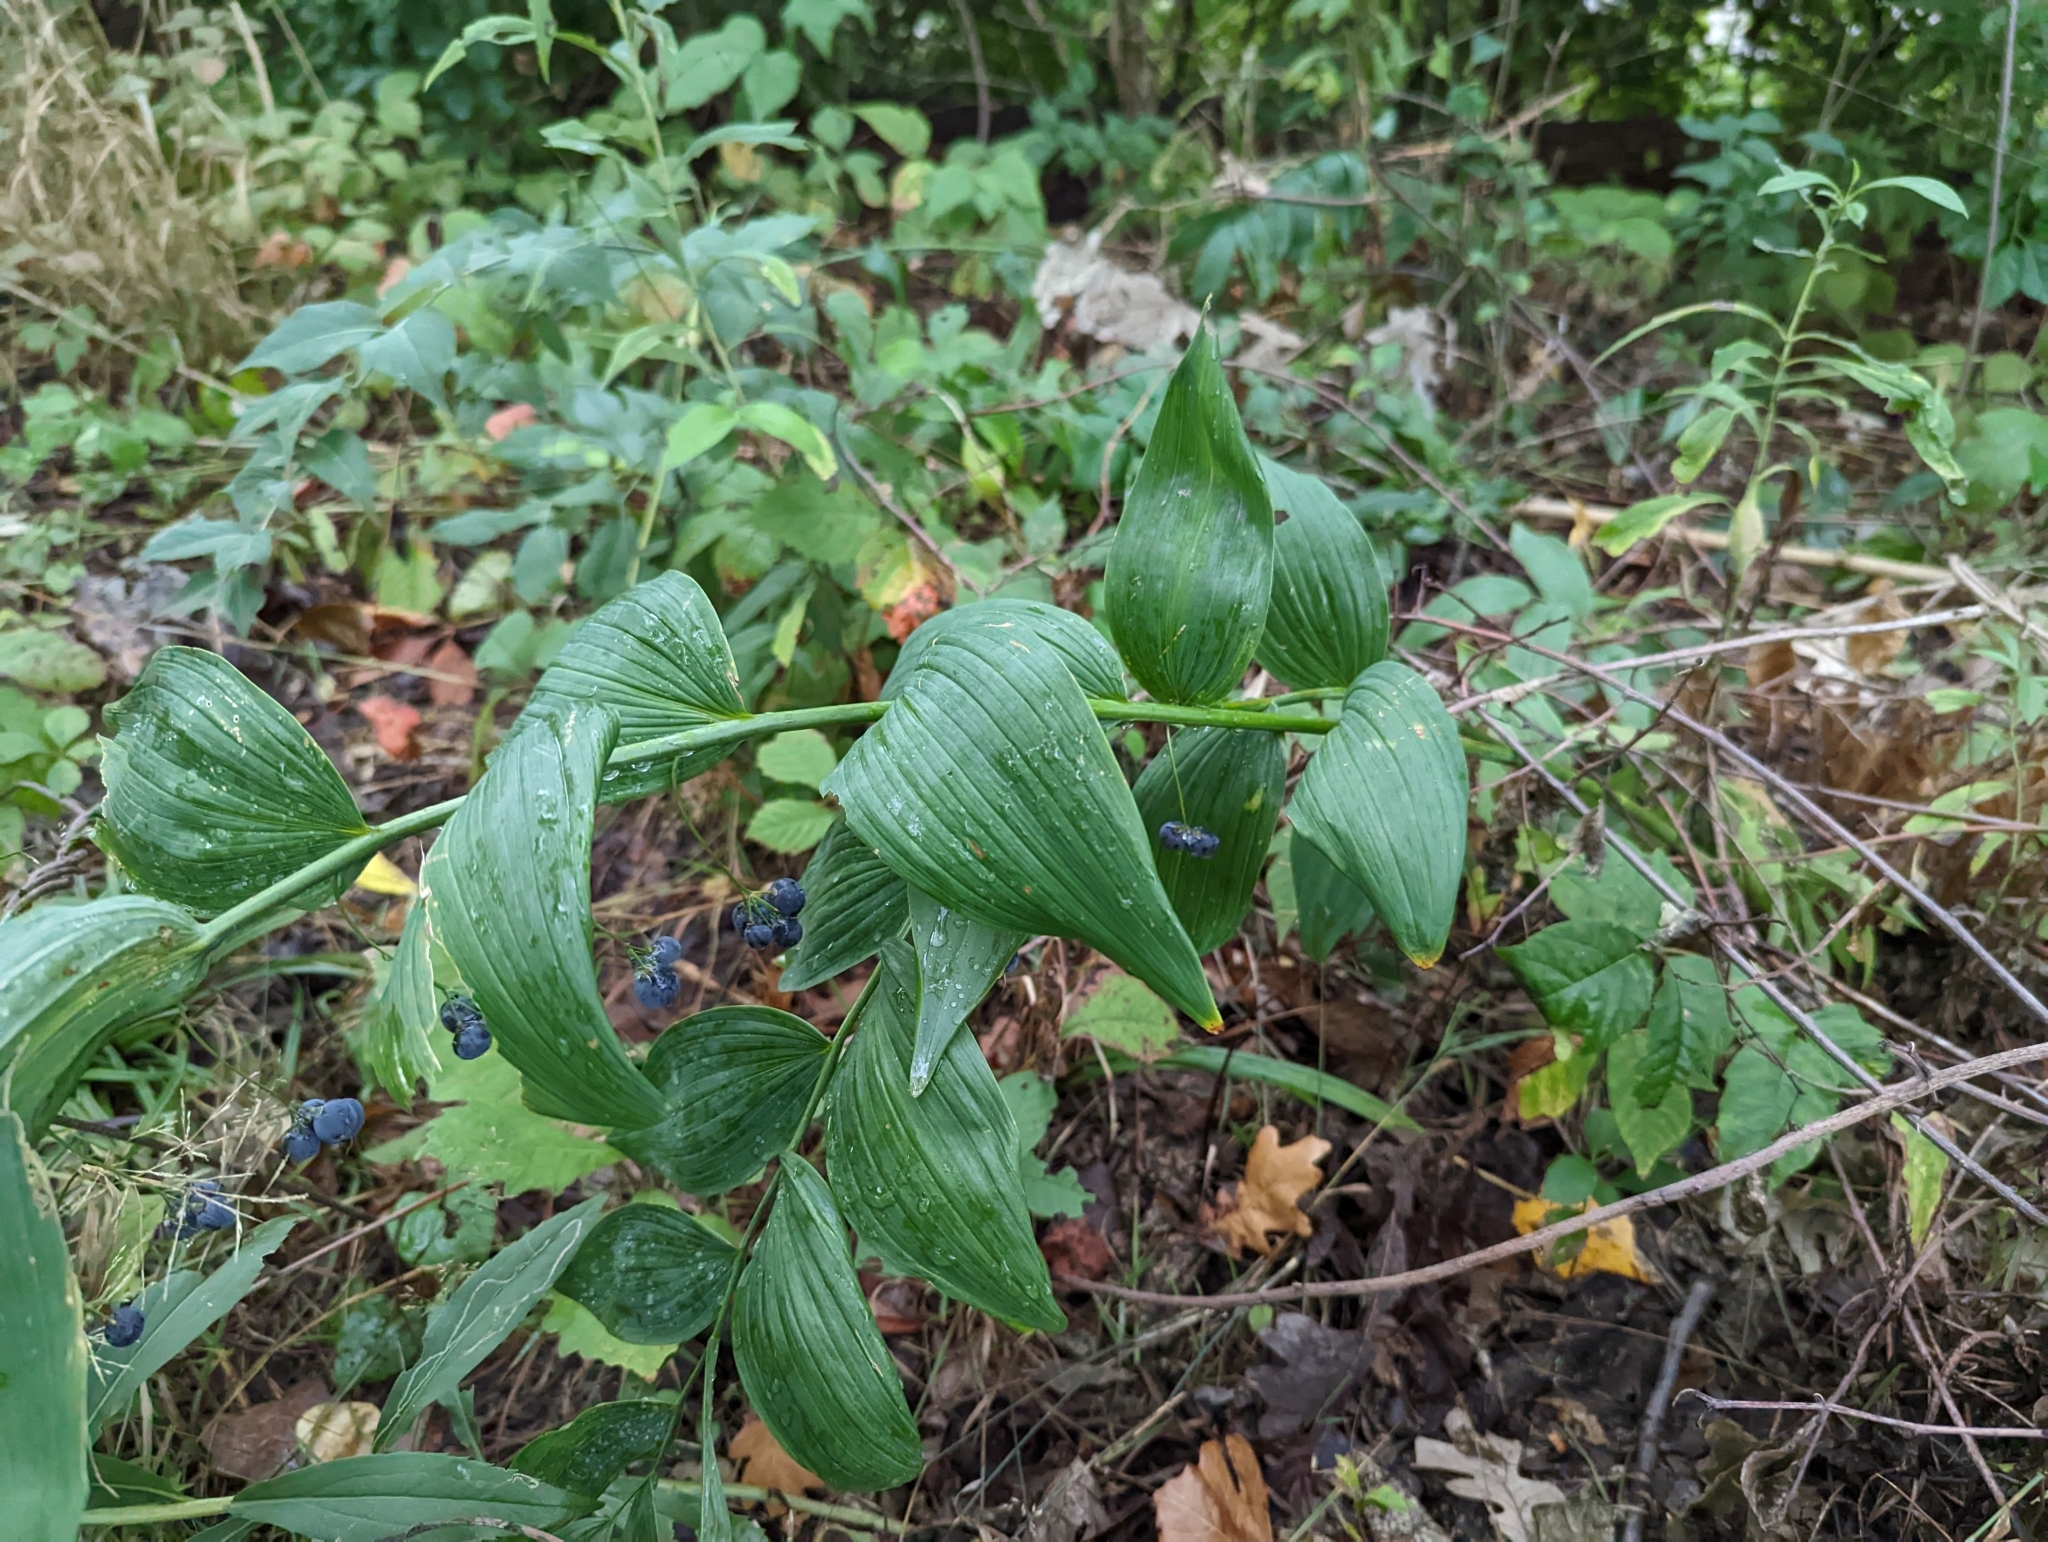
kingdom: Plantae
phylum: Tracheophyta
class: Liliopsida
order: Asparagales
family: Asparagaceae
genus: Polygonatum
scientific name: Polygonatum biflorum
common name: American solomon's-seal
